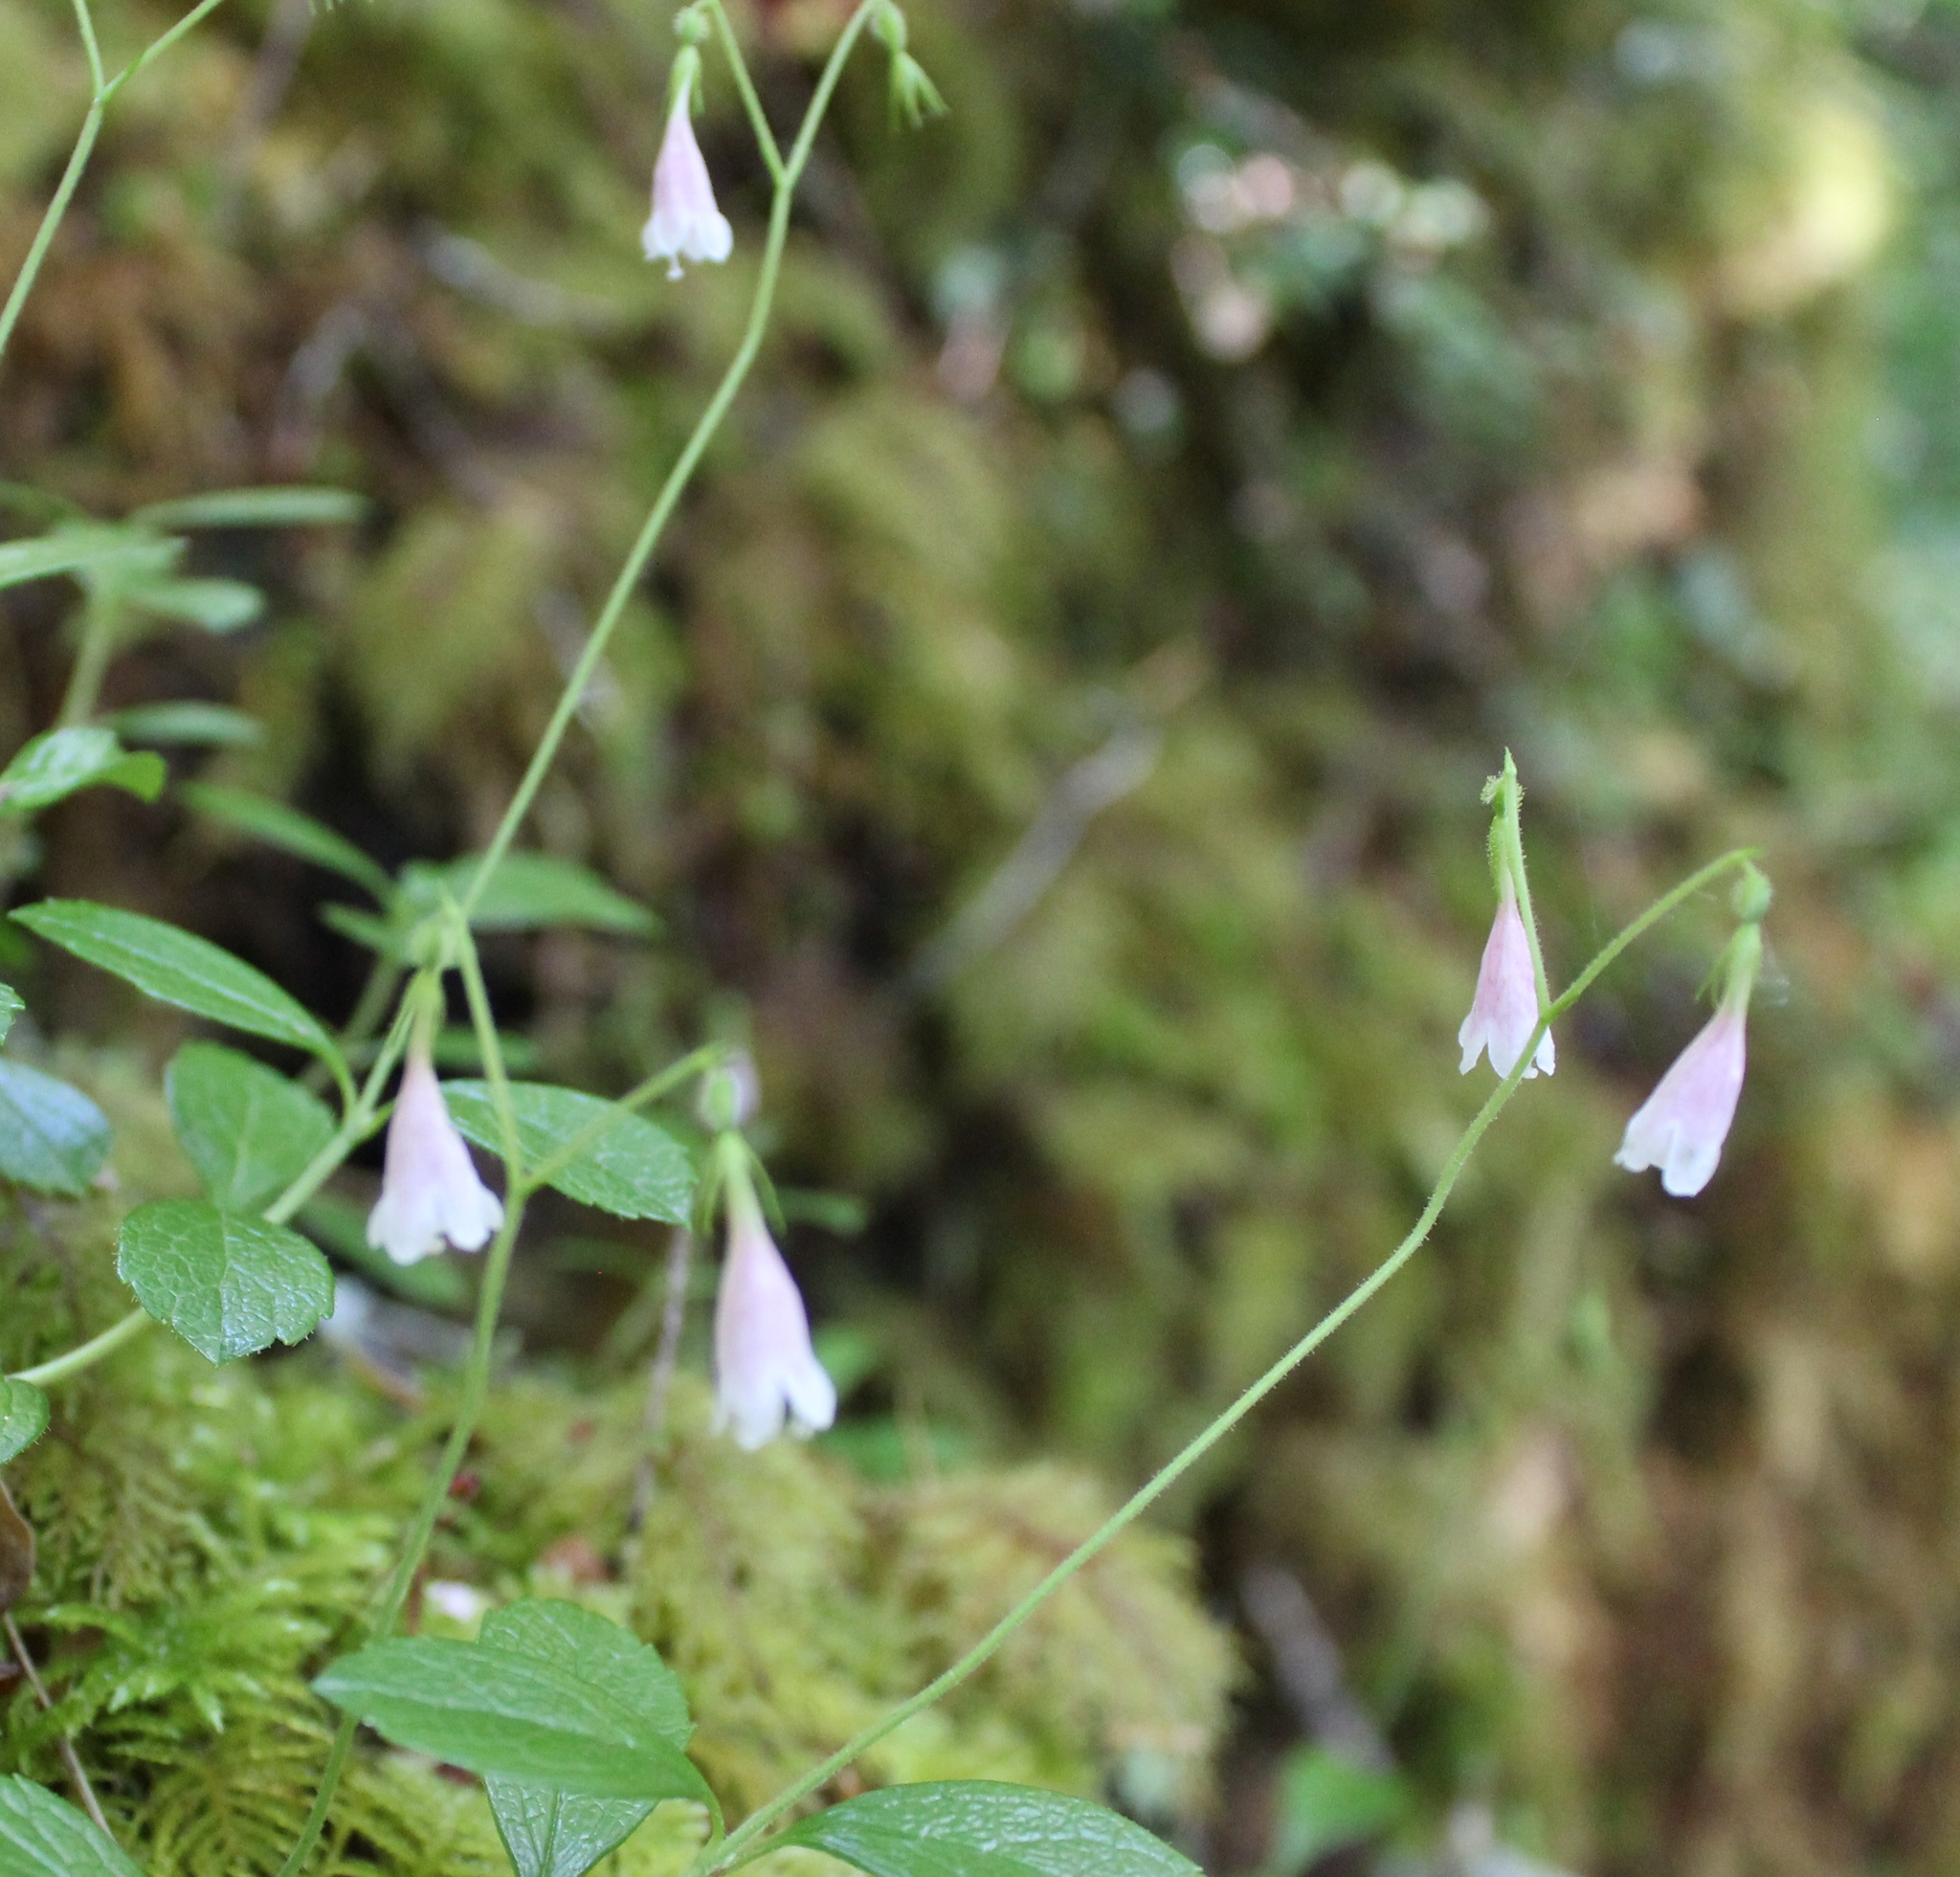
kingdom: Plantae
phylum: Tracheophyta
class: Magnoliopsida
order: Dipsacales
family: Caprifoliaceae
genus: Linnaea
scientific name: Linnaea borealis
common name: Twinflower
